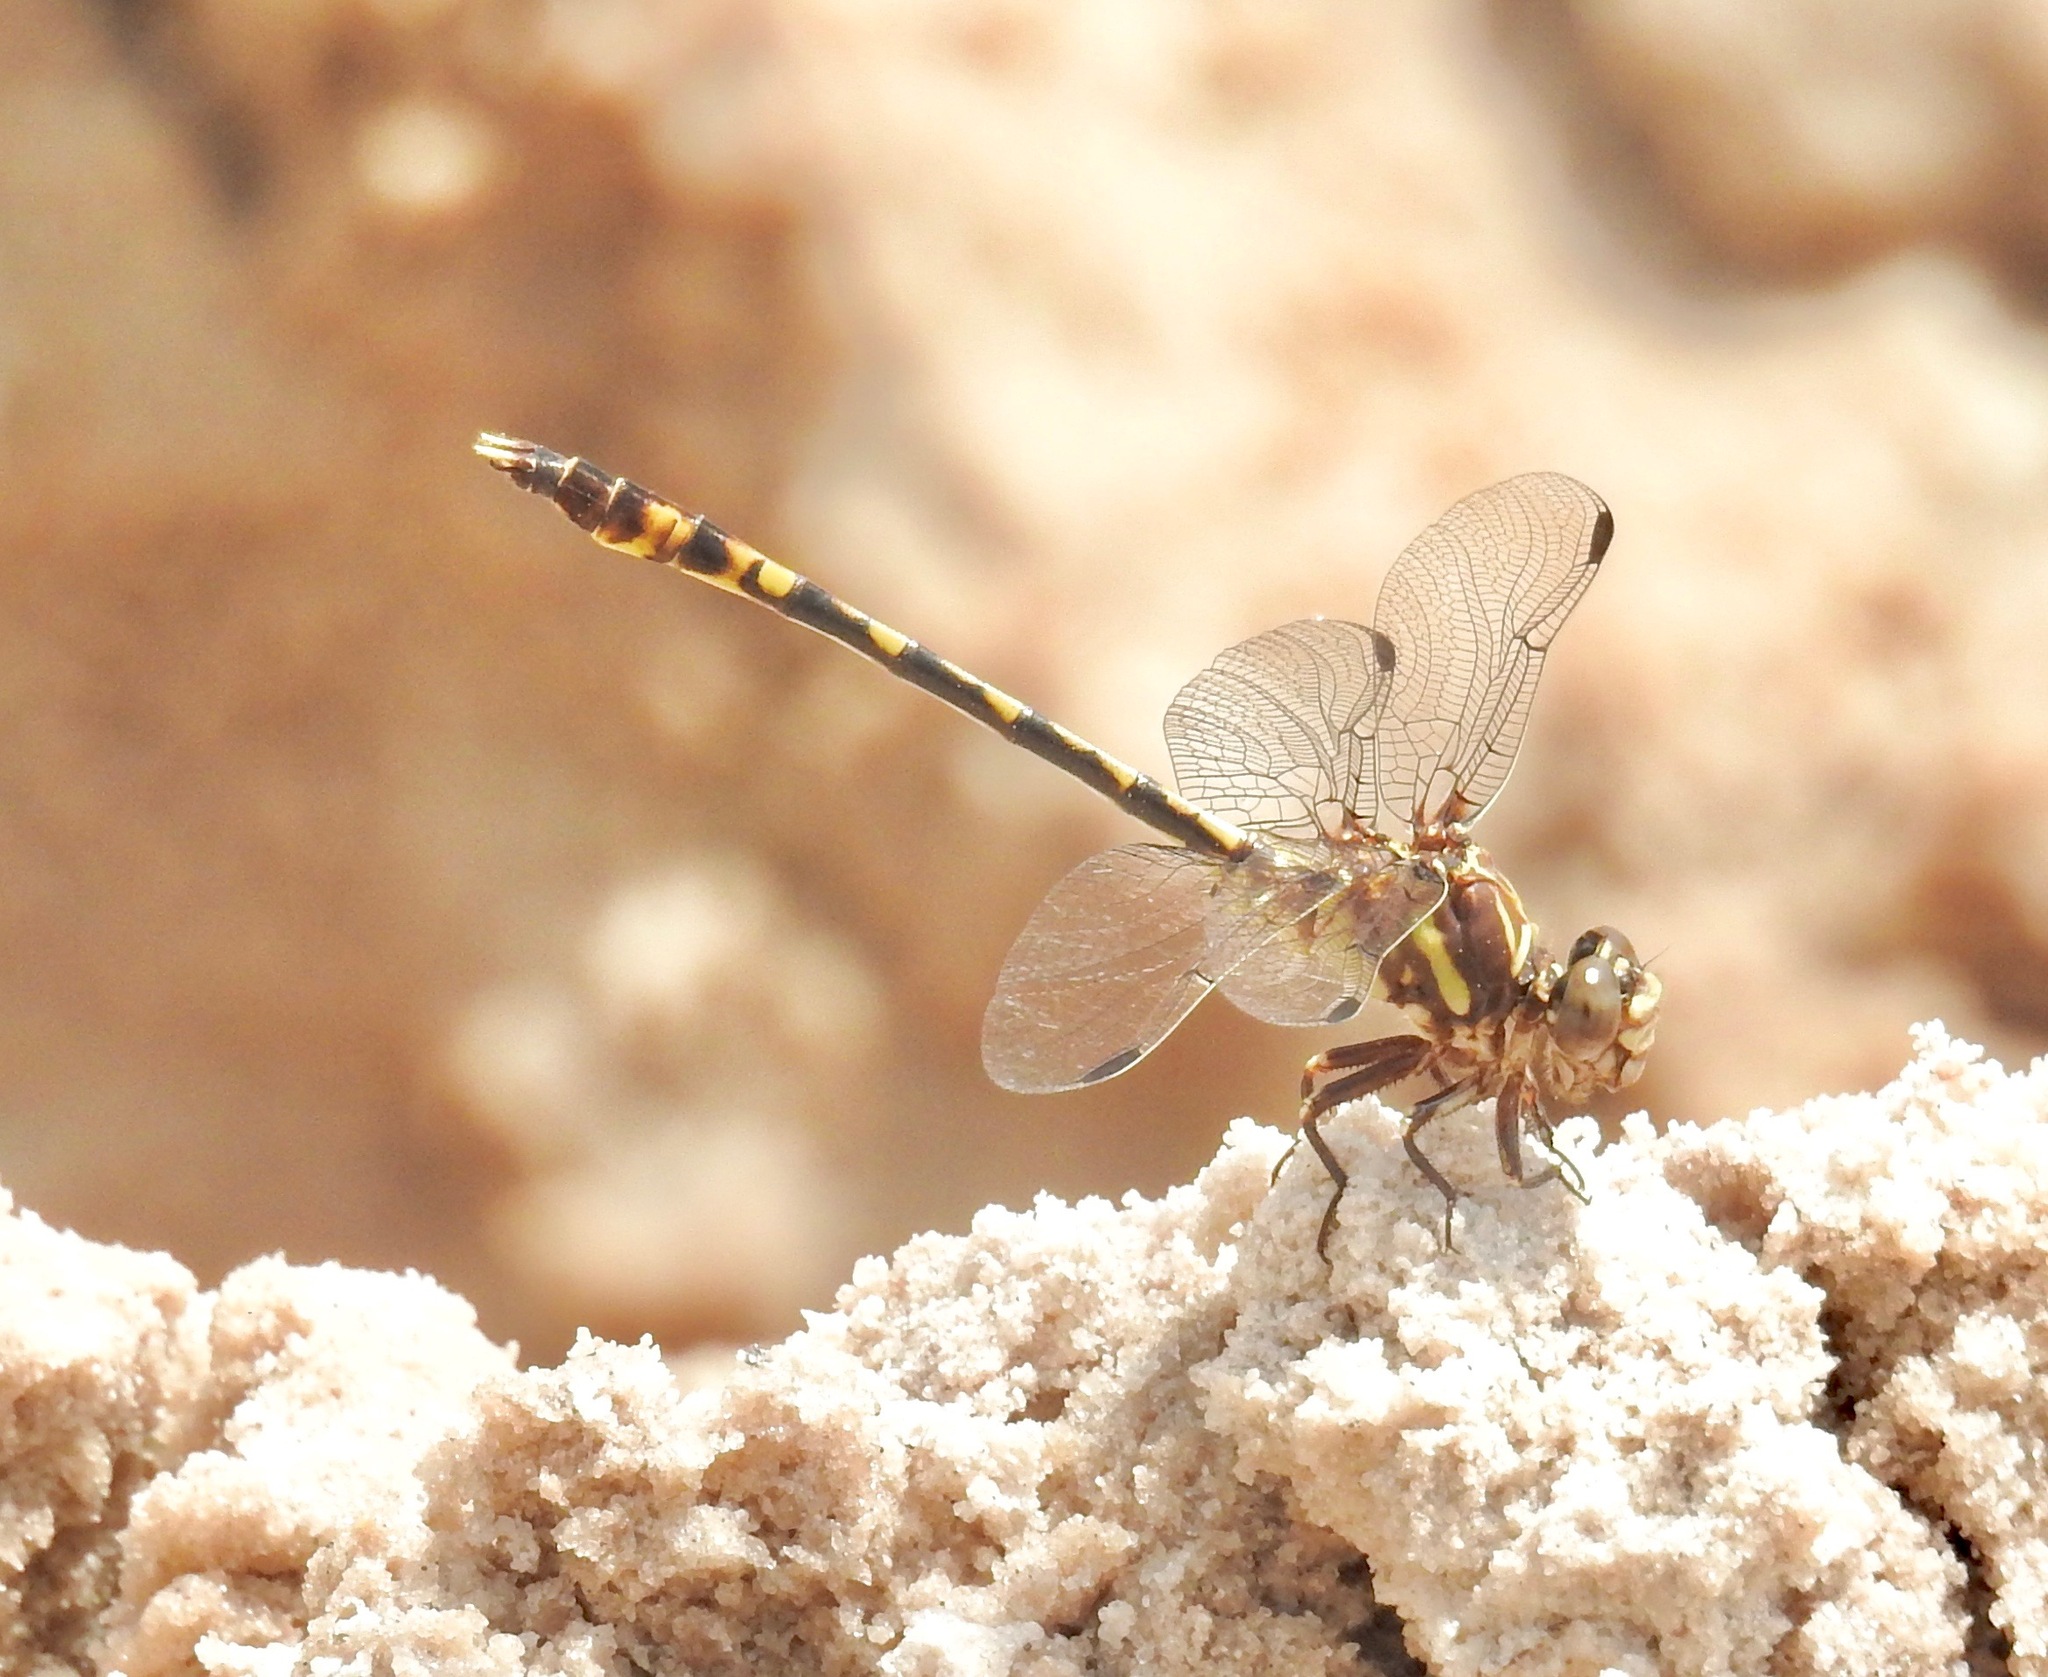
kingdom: Animalia
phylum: Arthropoda
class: Insecta
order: Odonata
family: Gomphidae
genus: Progomphus
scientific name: Progomphus alachuensis
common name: Tawny sanddragon
